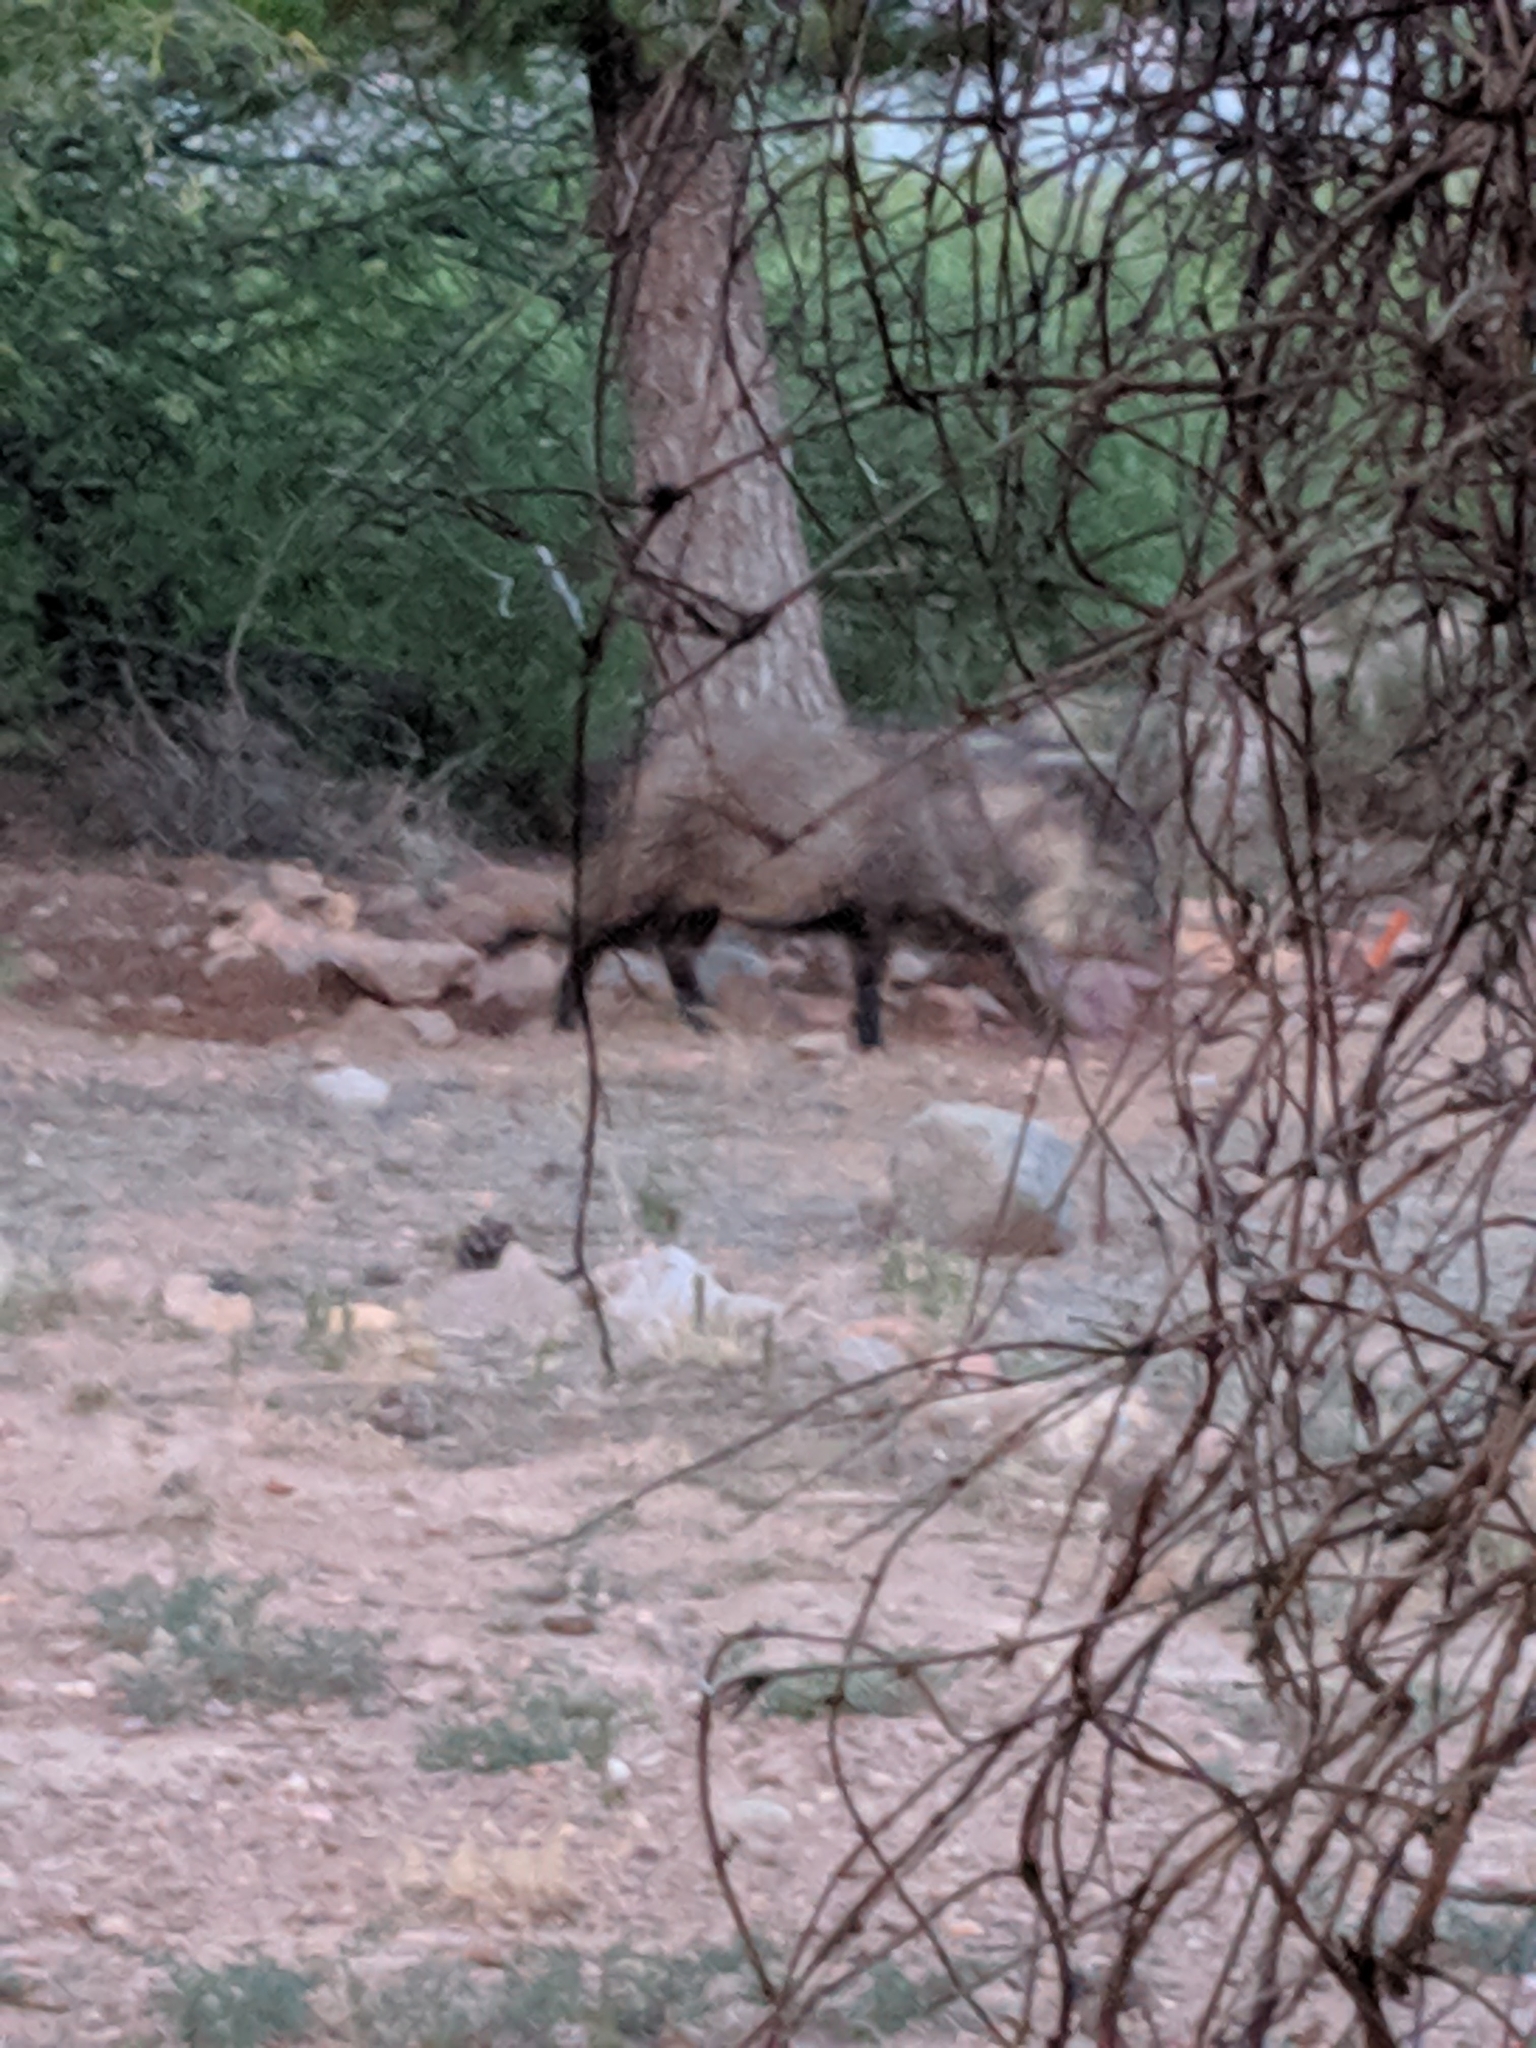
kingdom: Animalia
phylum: Chordata
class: Mammalia
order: Artiodactyla
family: Tayassuidae
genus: Pecari
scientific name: Pecari tajacu
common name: Collared peccary
